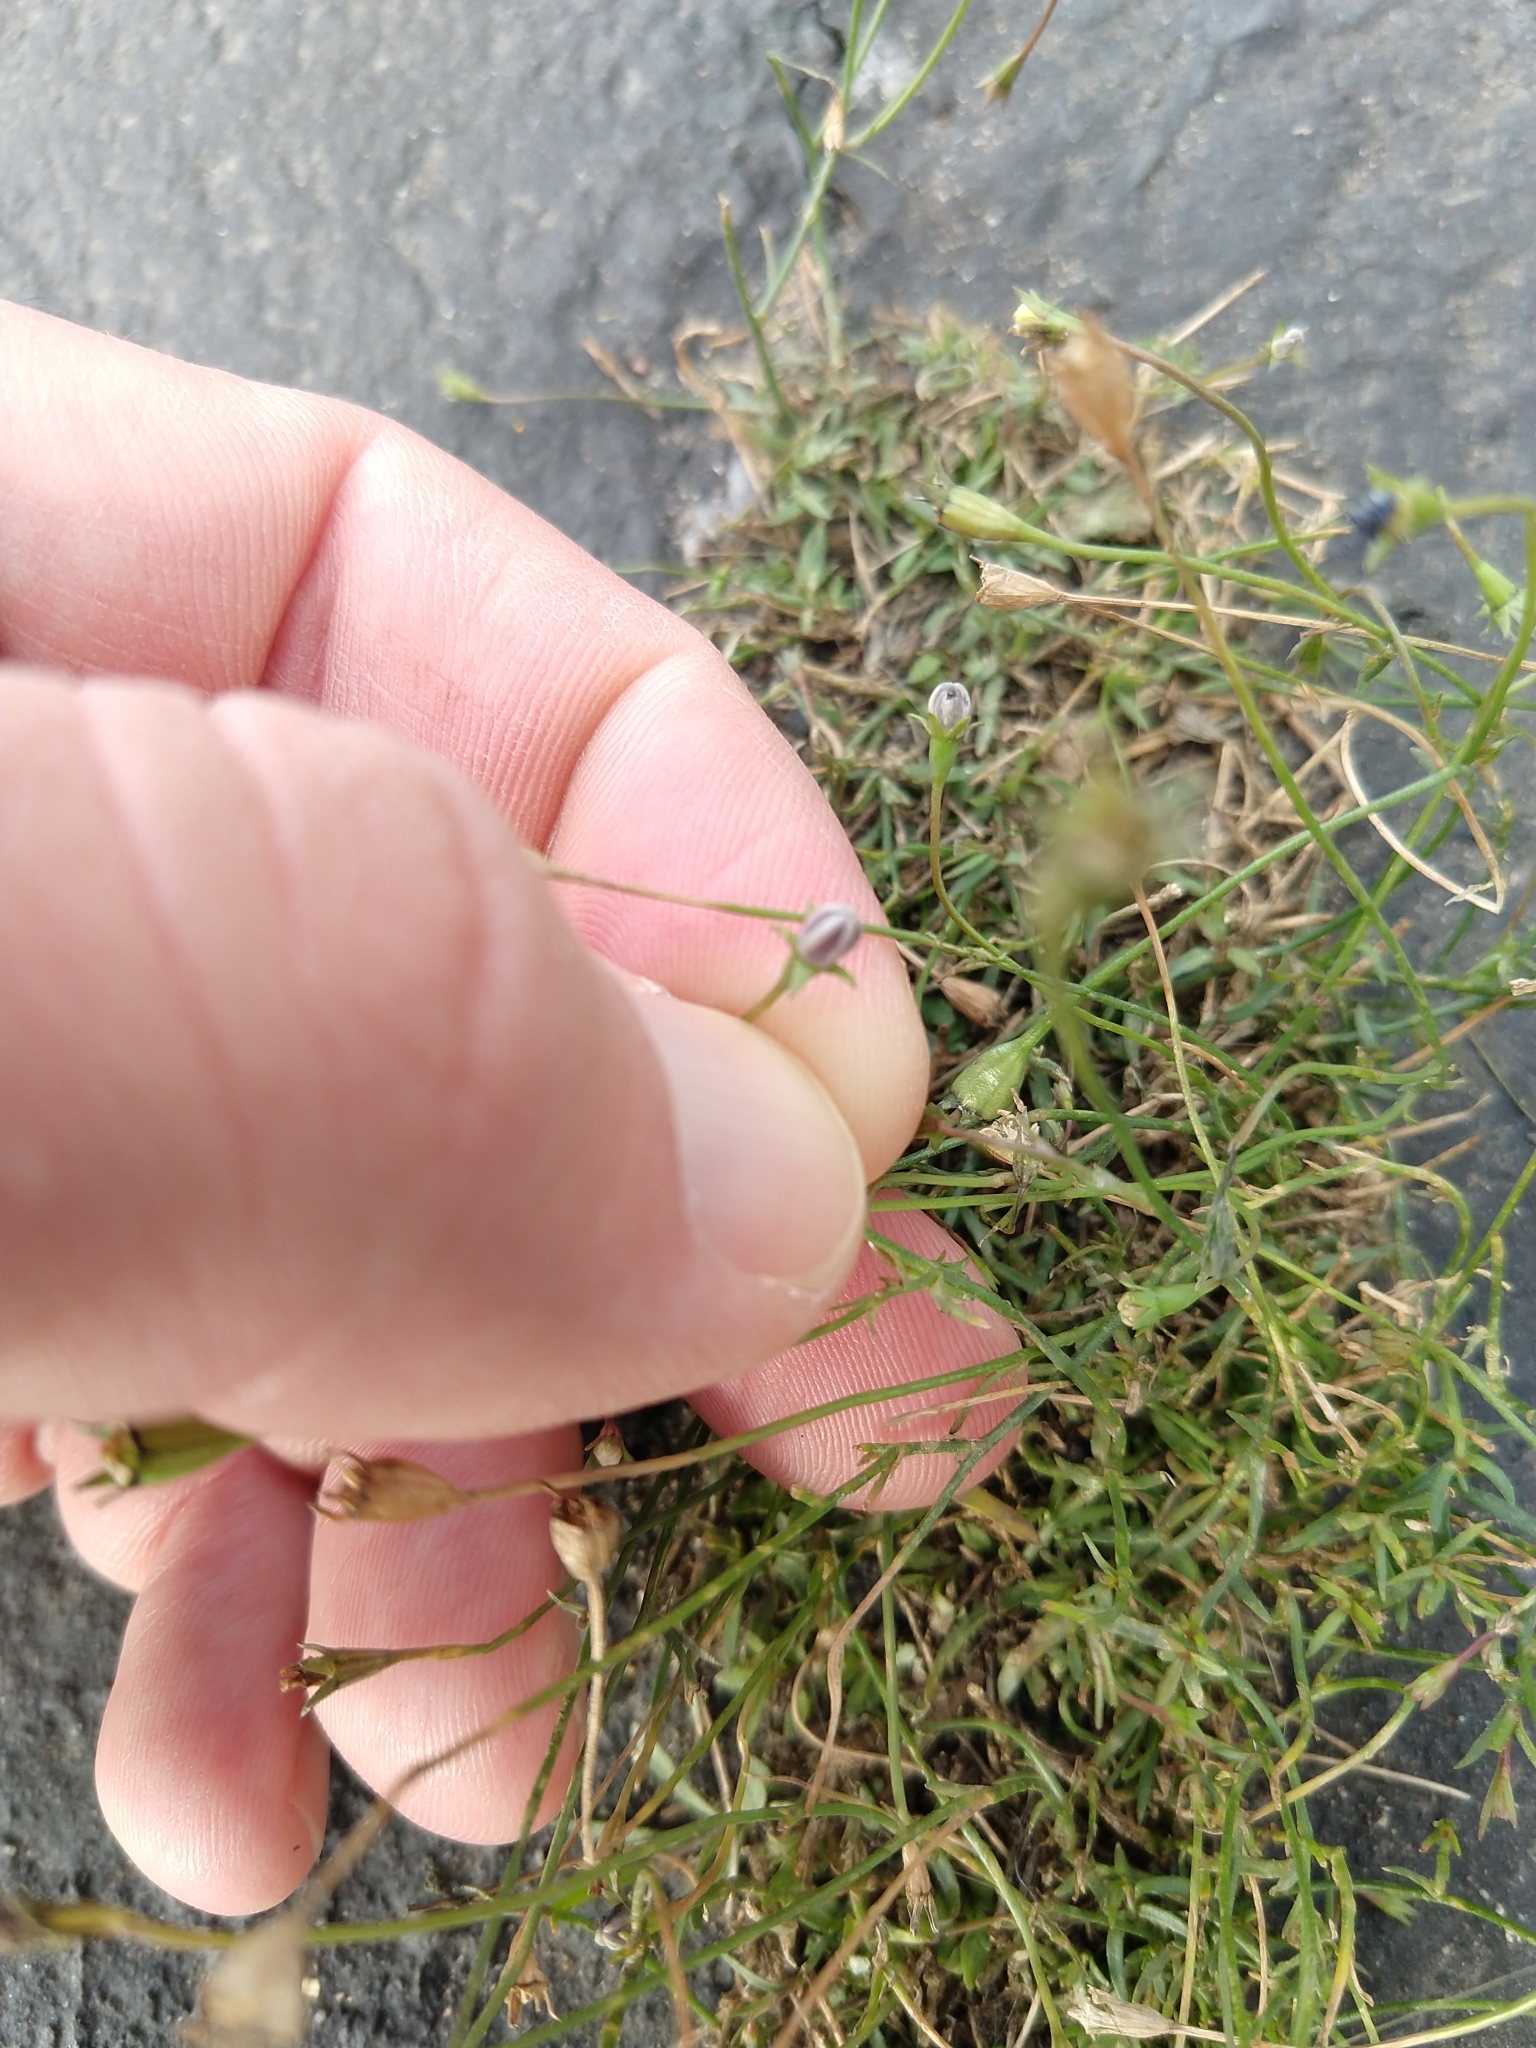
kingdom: Plantae
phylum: Tracheophyta
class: Magnoliopsida
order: Asterales
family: Campanulaceae
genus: Wahlenbergia
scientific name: Wahlenbergia marginata
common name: Southern rockbell
